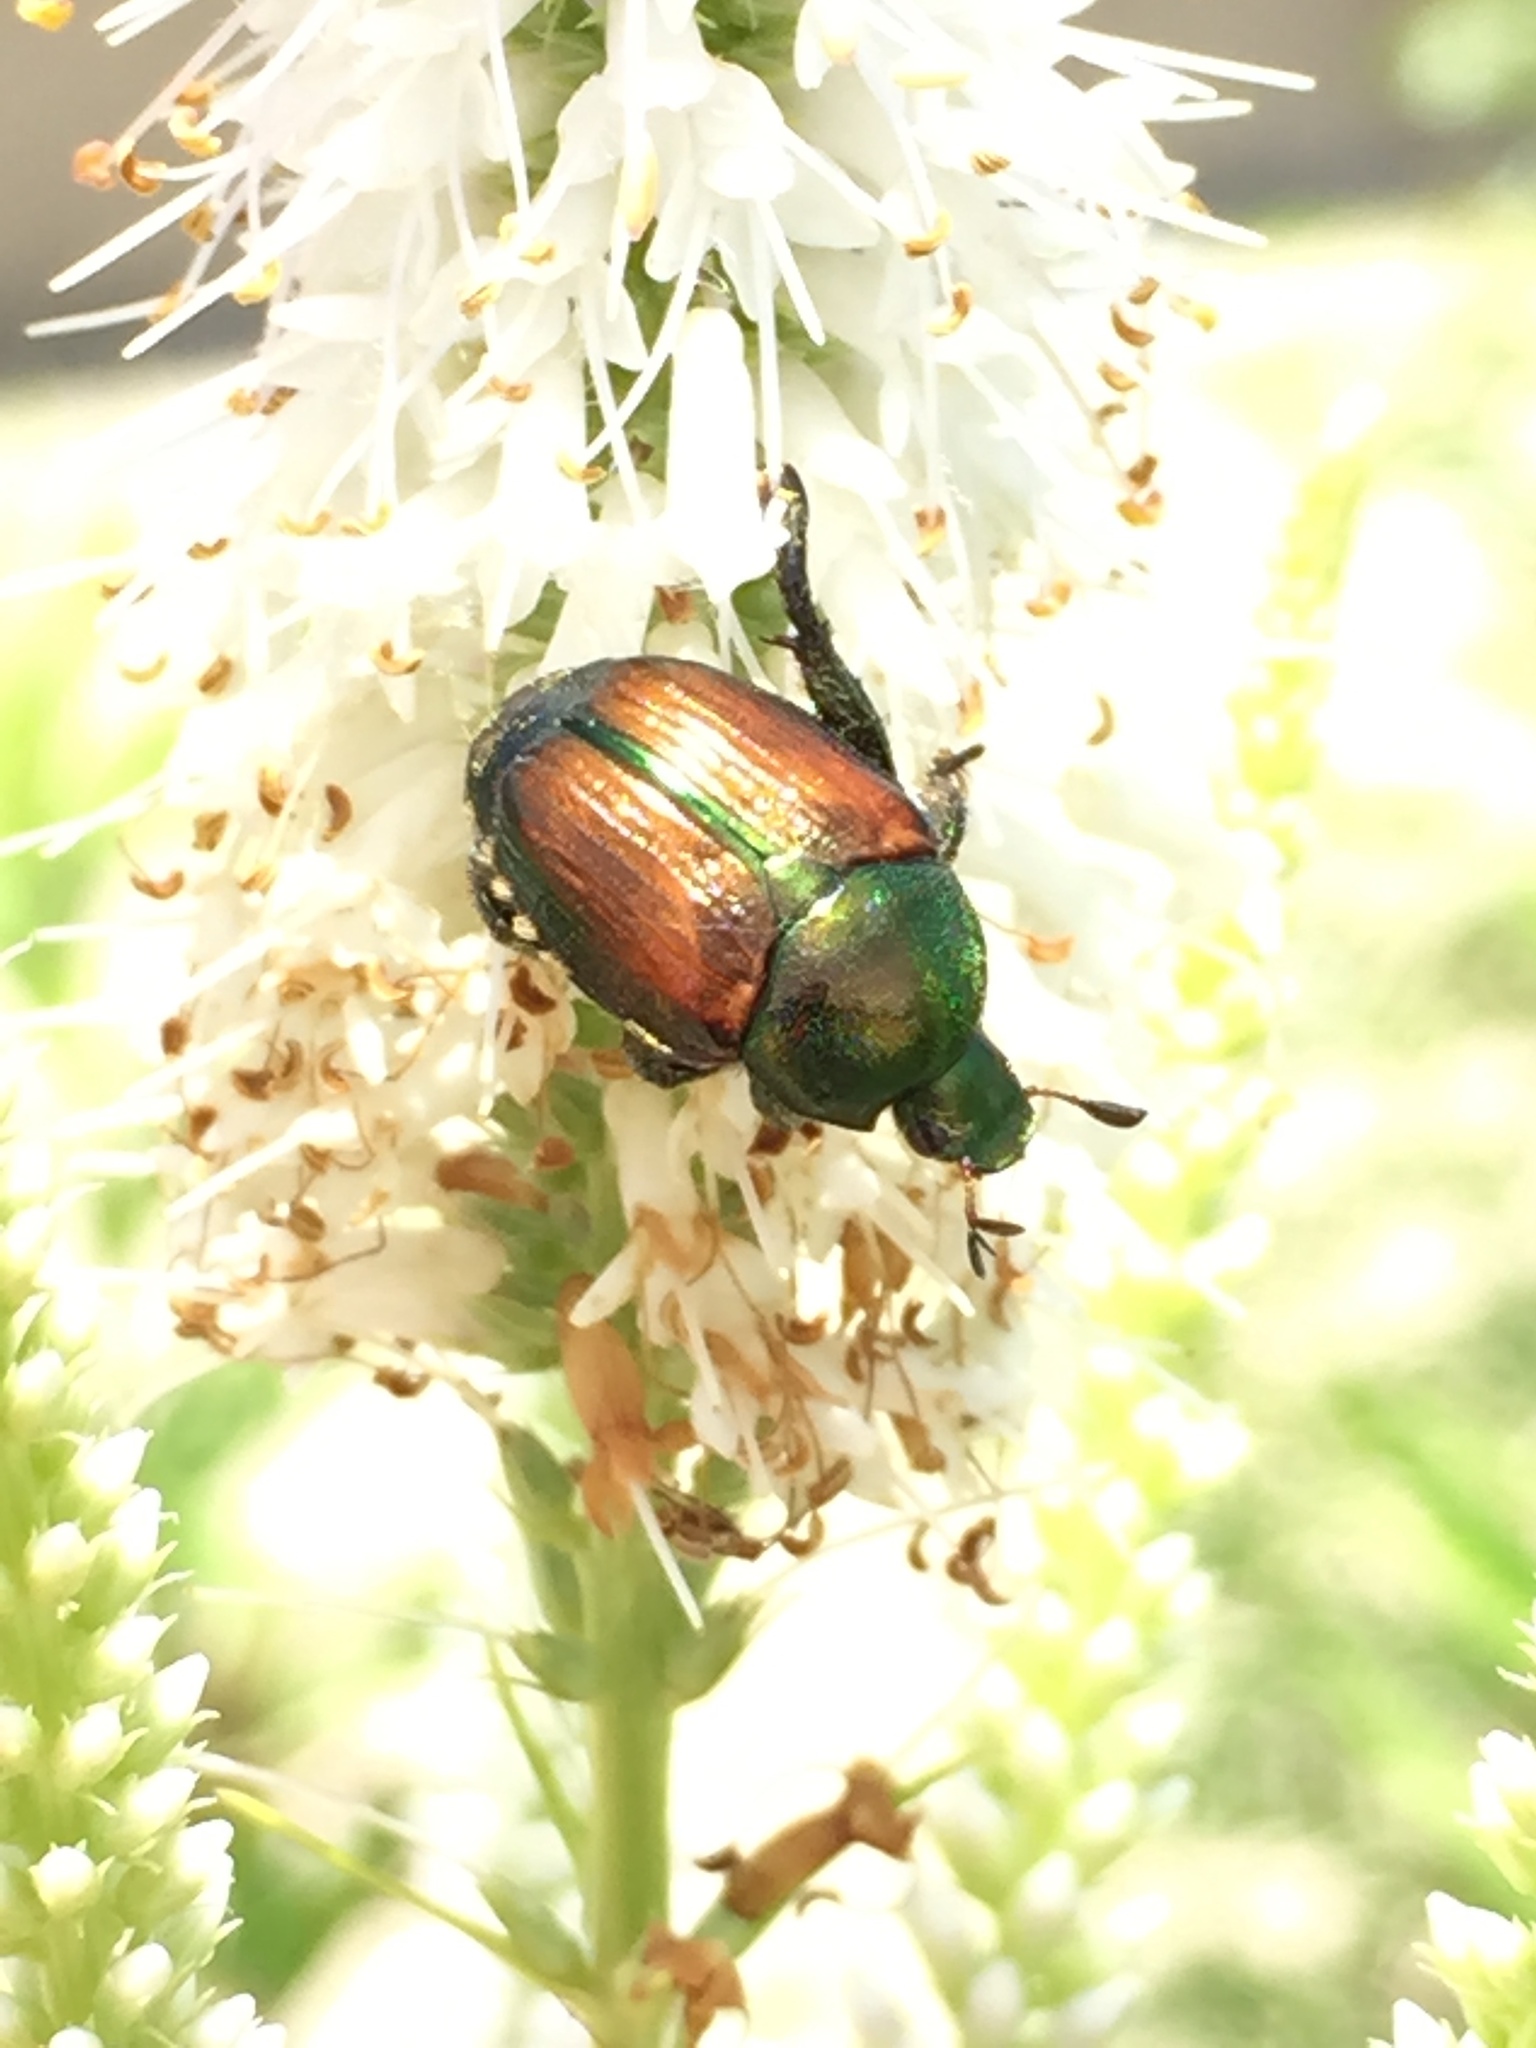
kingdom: Animalia
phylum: Arthropoda
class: Insecta
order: Coleoptera
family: Scarabaeidae
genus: Popillia
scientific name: Popillia japonica
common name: Japanese beetle
